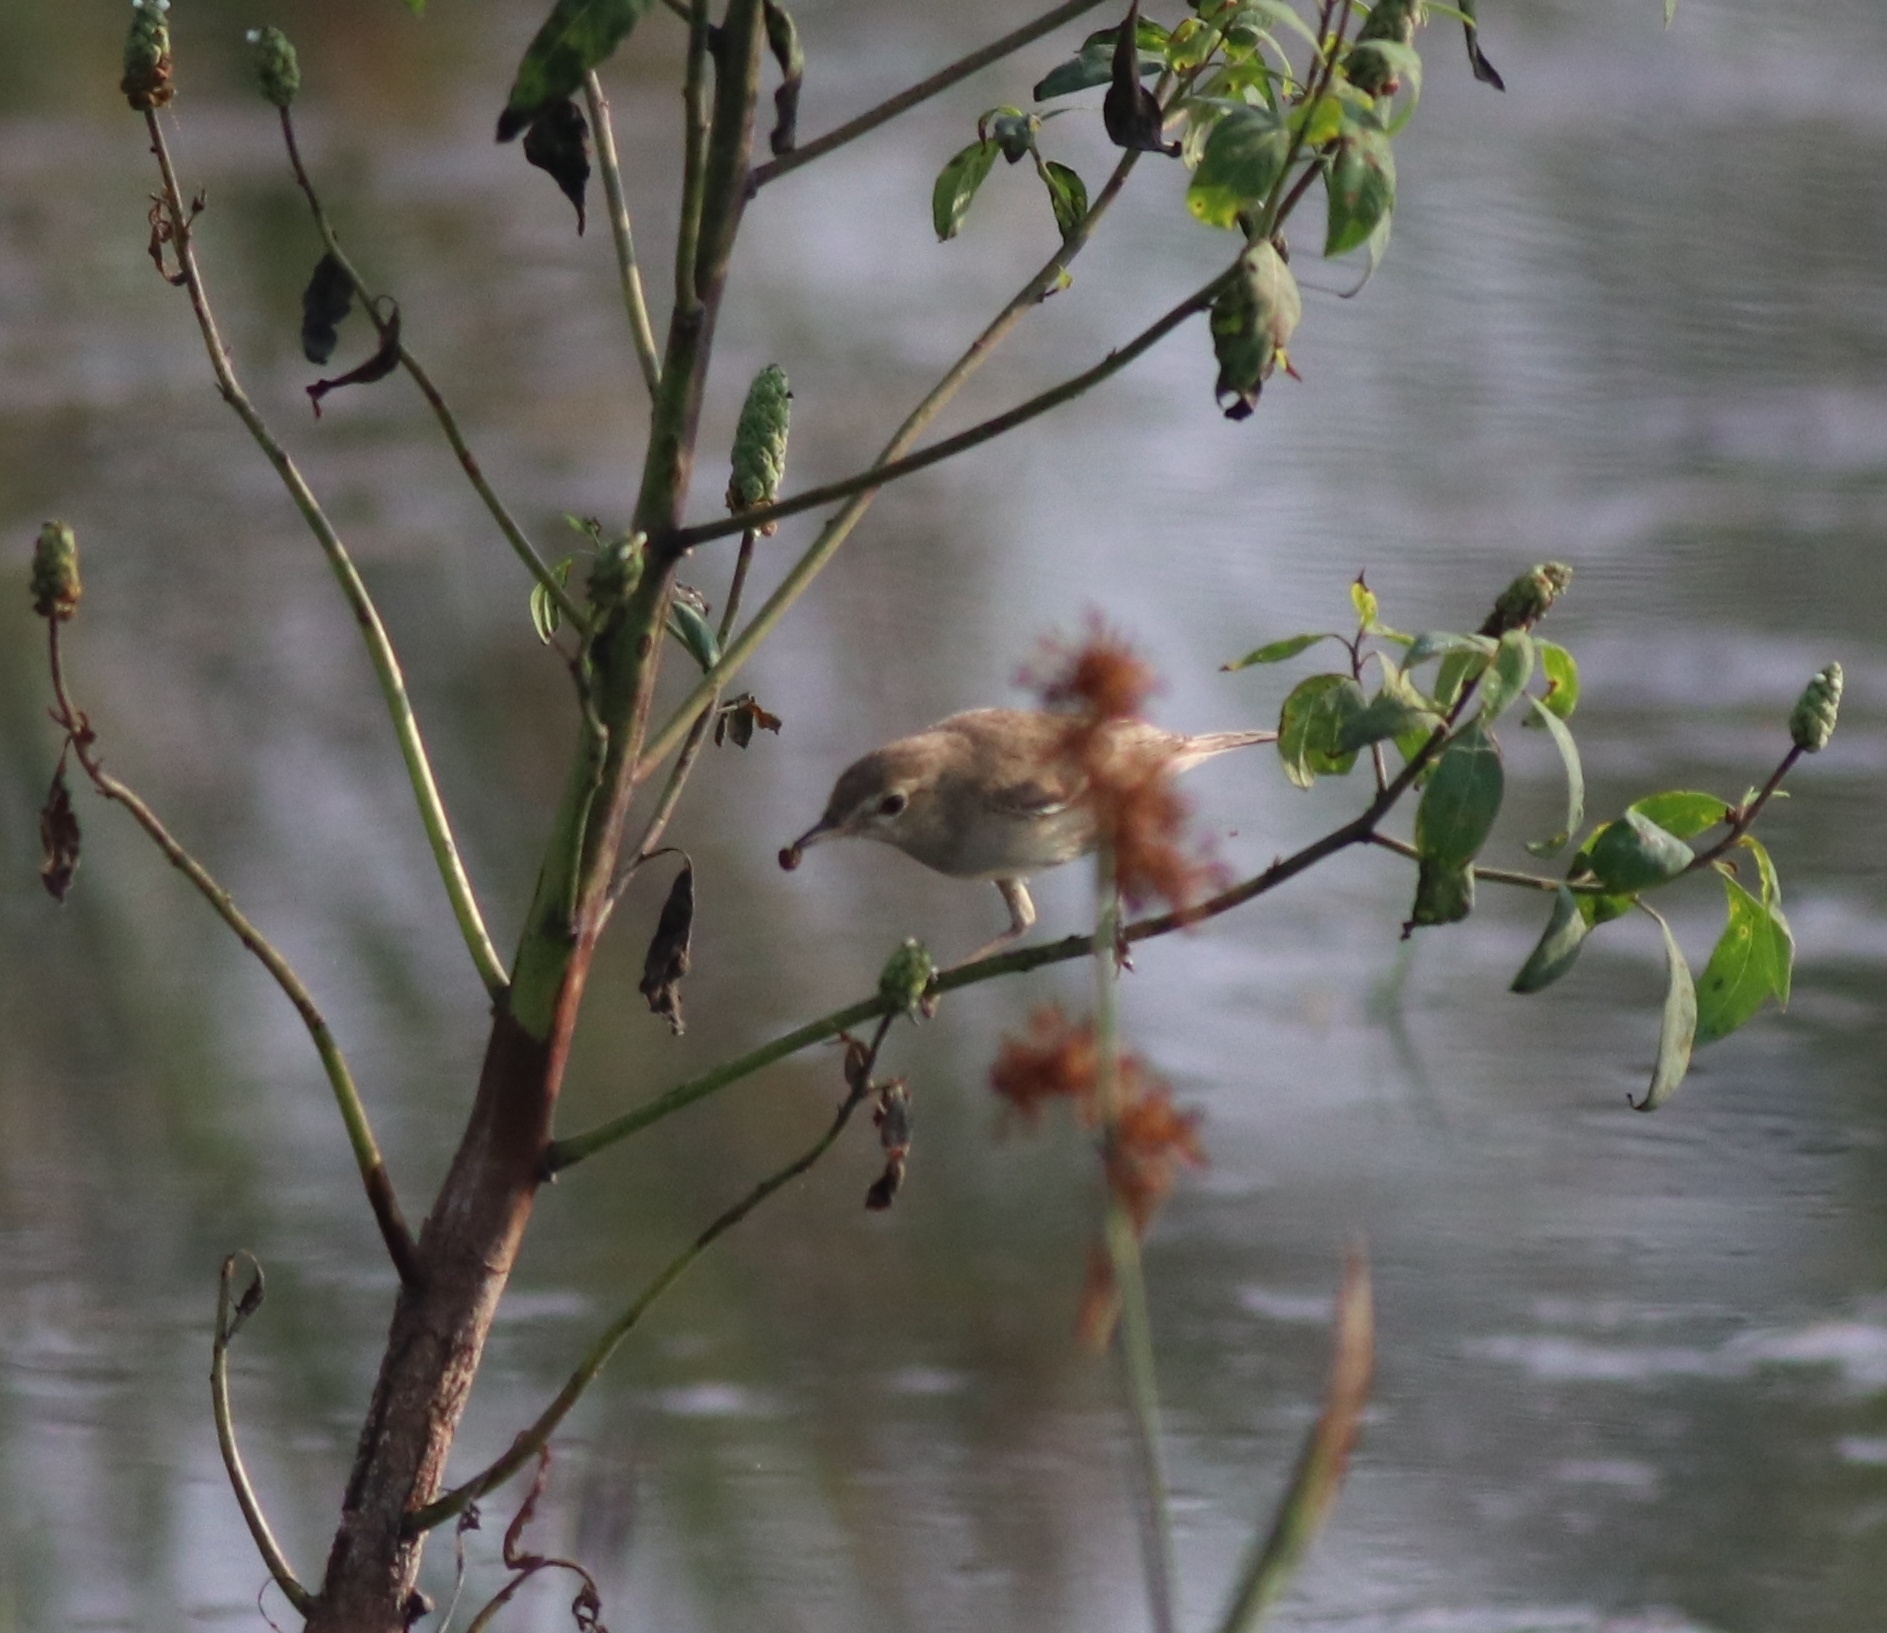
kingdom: Animalia
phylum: Chordata
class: Aves
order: Passeriformes
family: Acrocephalidae
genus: Iduna
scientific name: Iduna caligata
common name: Booted warbler
